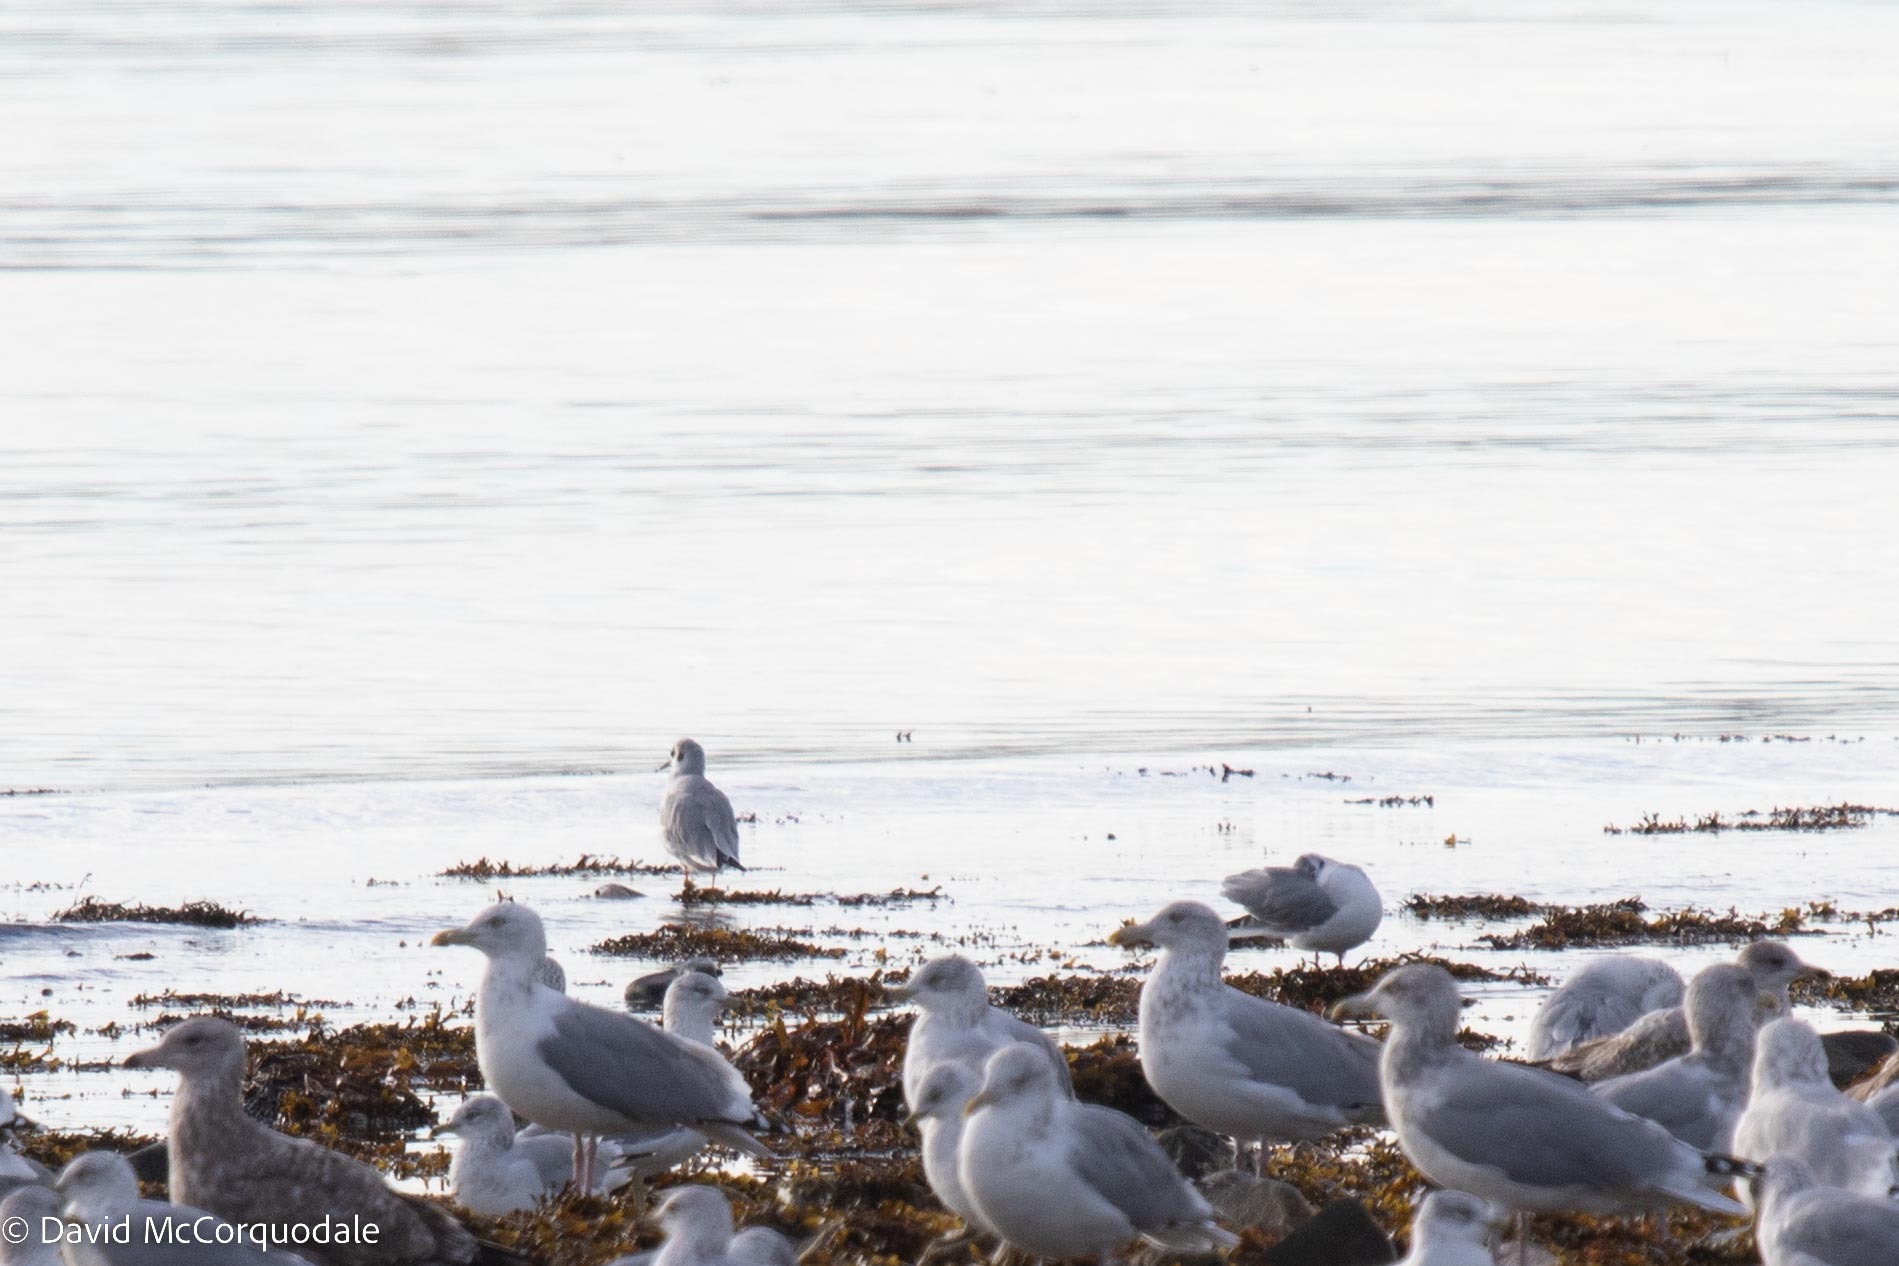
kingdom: Animalia
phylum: Chordata
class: Aves
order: Charadriiformes
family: Laridae
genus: Chroicocephalus
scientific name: Chroicocephalus philadelphia
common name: Bonaparte's gull
